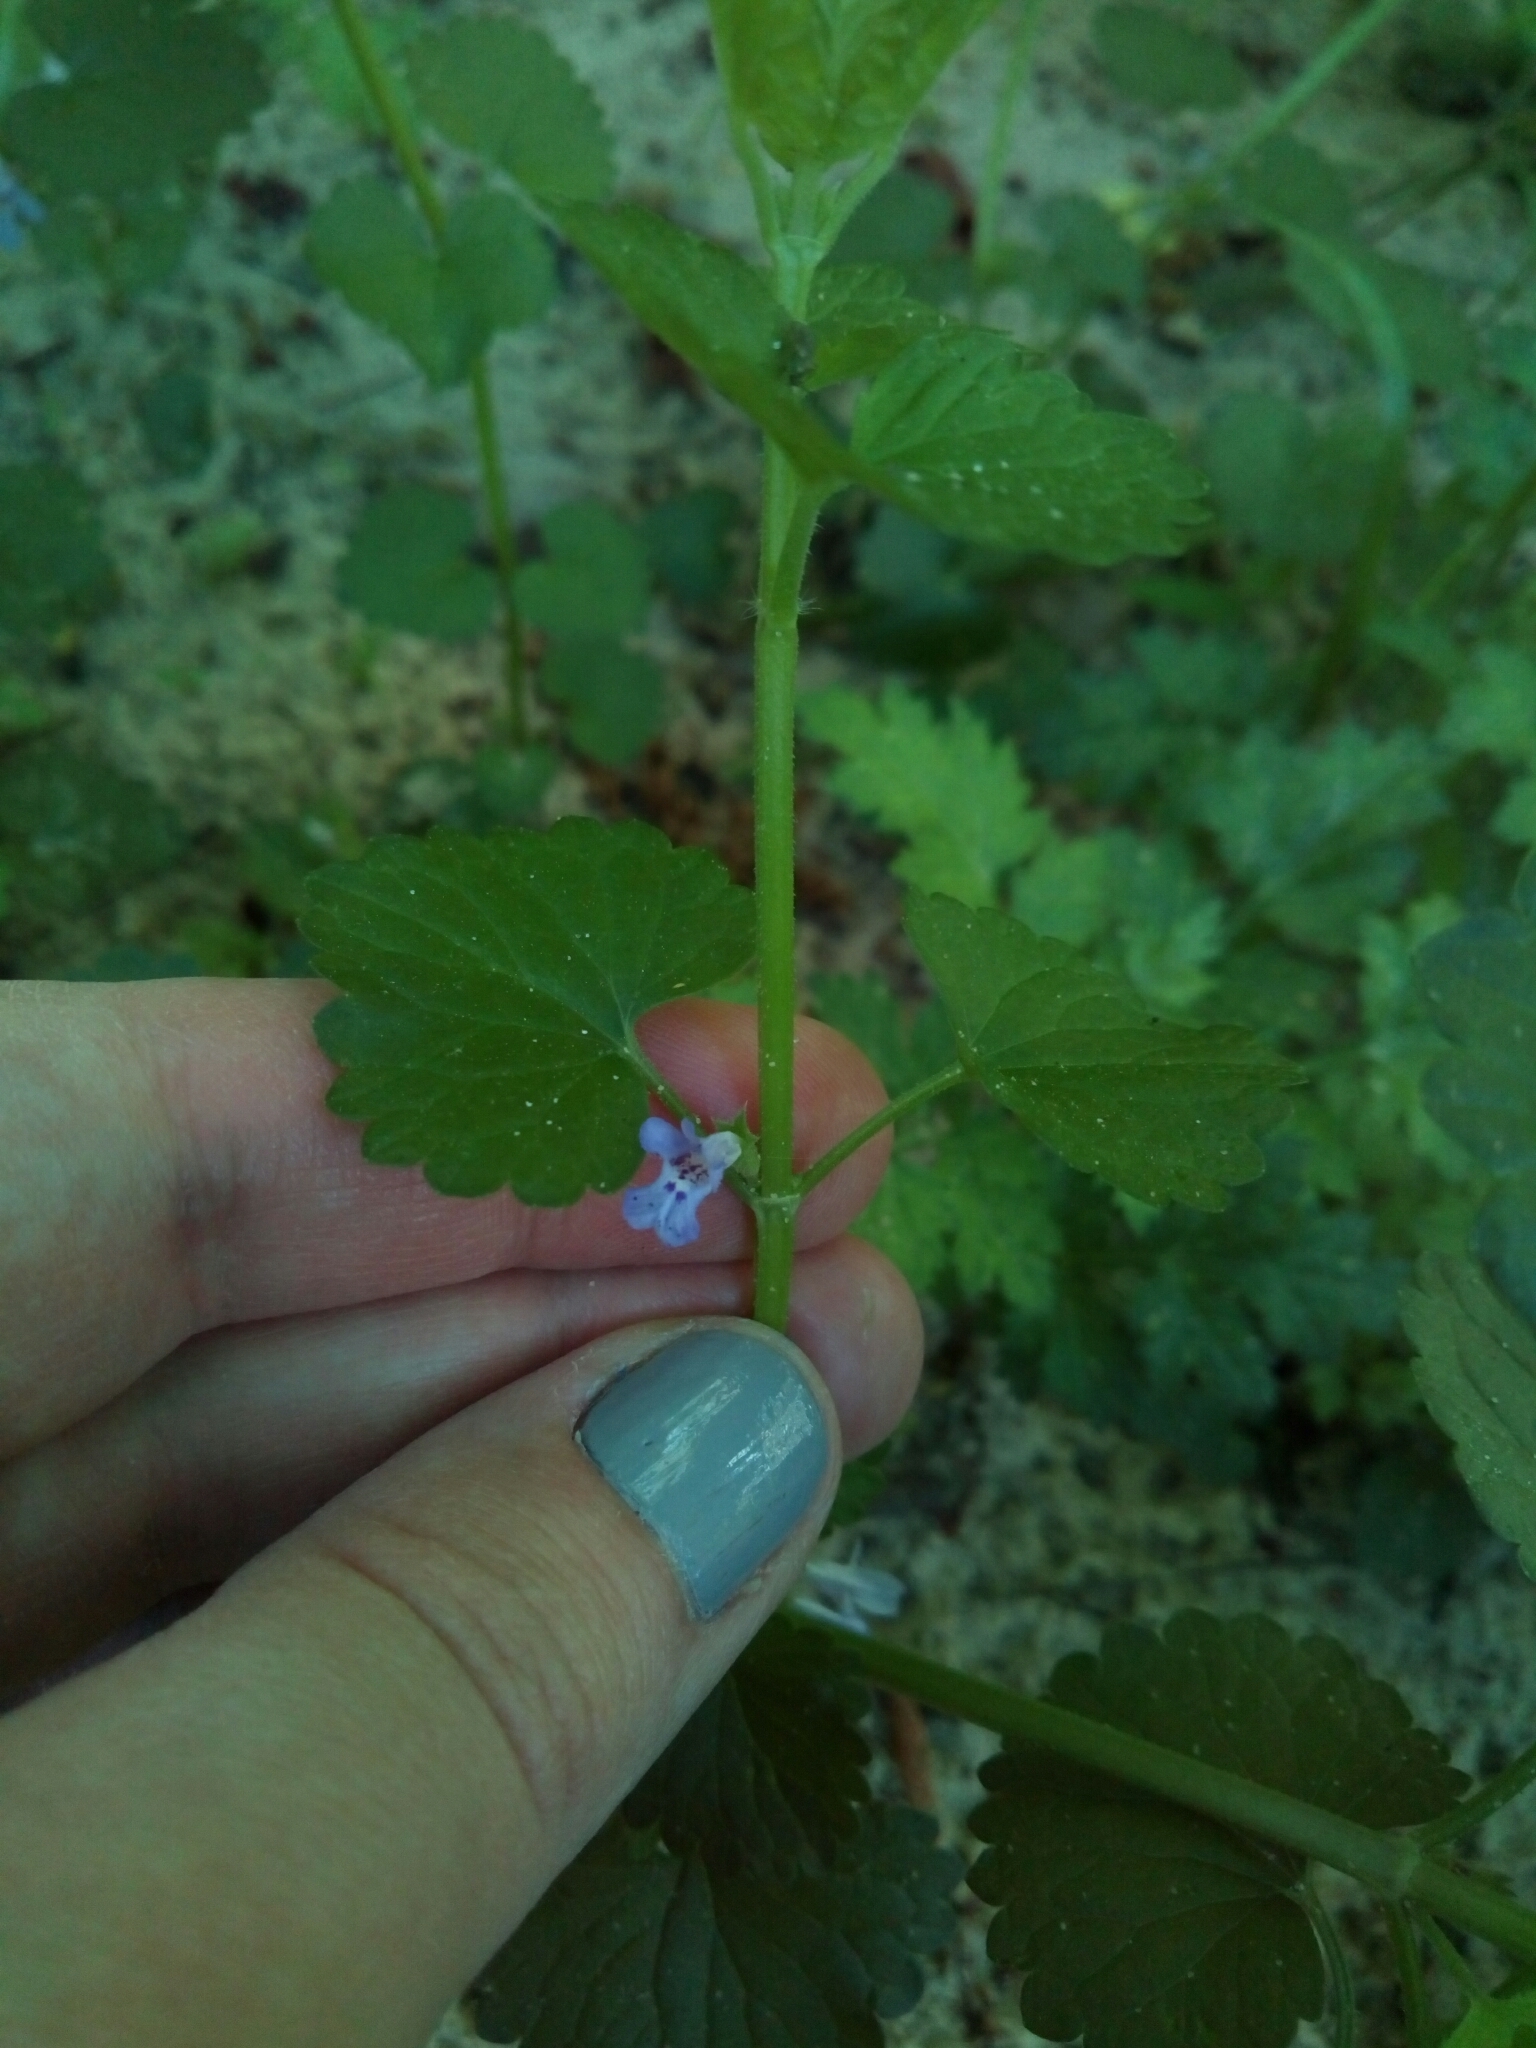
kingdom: Plantae
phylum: Tracheophyta
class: Magnoliopsida
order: Lamiales
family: Lamiaceae
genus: Glechoma
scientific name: Glechoma hederacea
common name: Ground ivy
